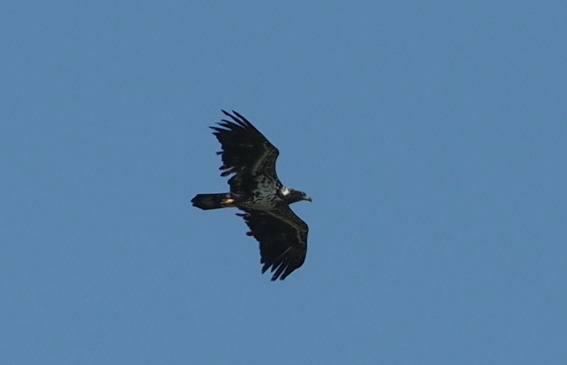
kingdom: Animalia
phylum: Chordata
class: Aves
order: Accipitriformes
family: Accipitridae
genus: Haliaeetus
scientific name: Haliaeetus leucocephalus
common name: Bald eagle
